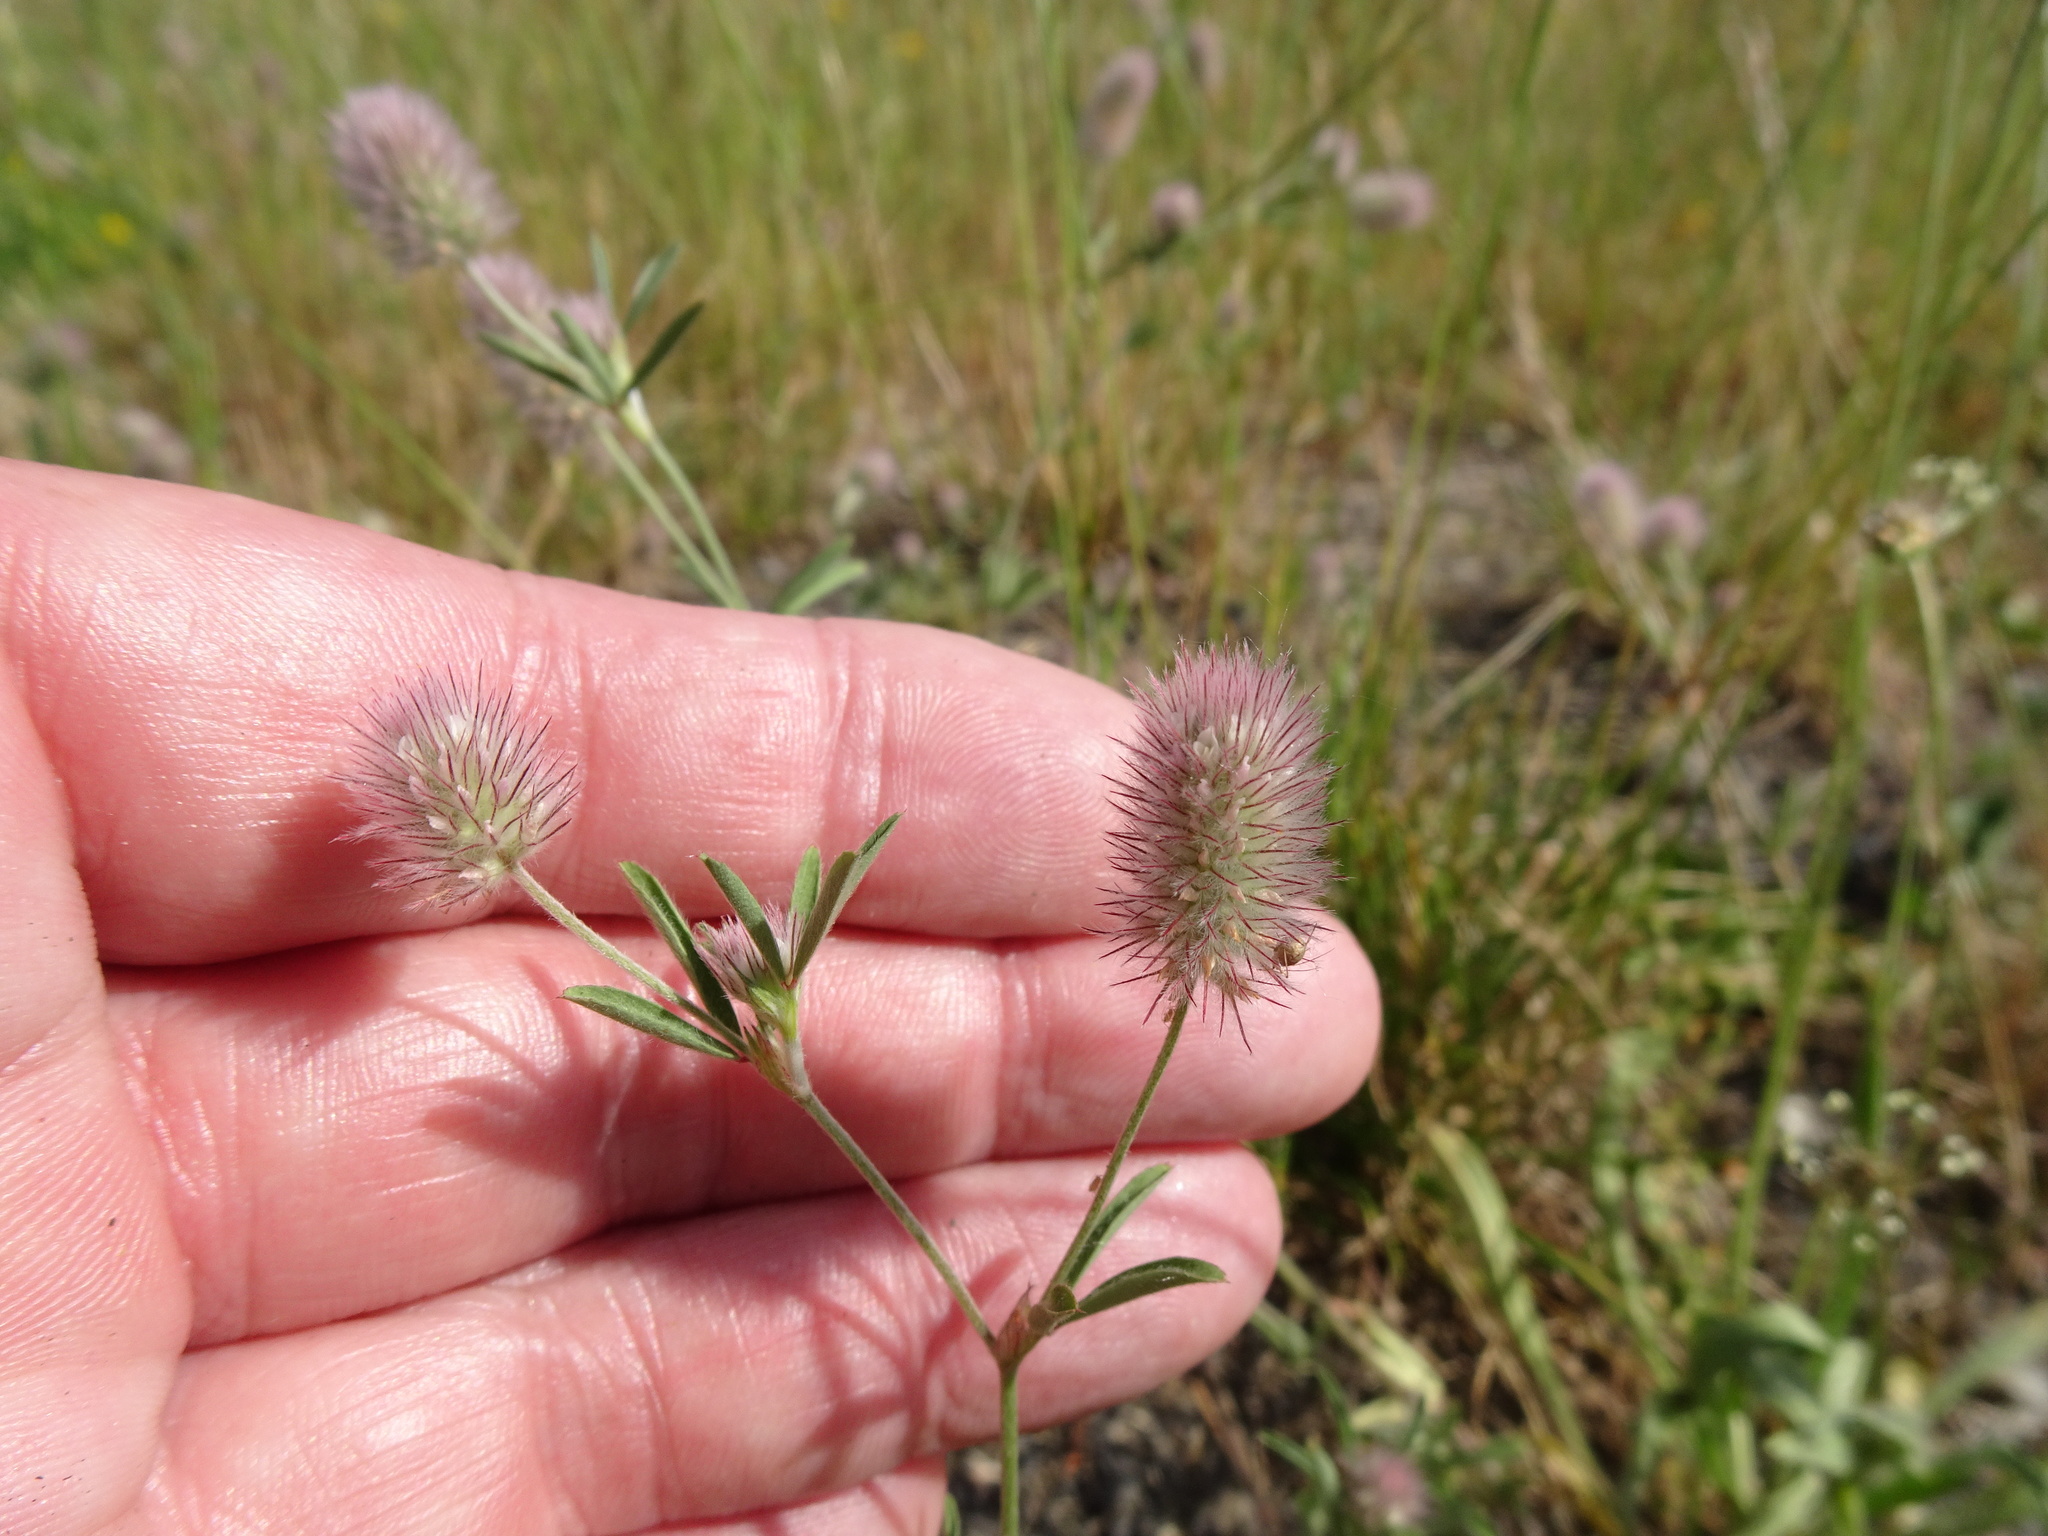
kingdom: Plantae
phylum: Tracheophyta
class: Magnoliopsida
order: Fabales
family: Fabaceae
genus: Trifolium
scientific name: Trifolium arvense
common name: Hare's-foot clover
